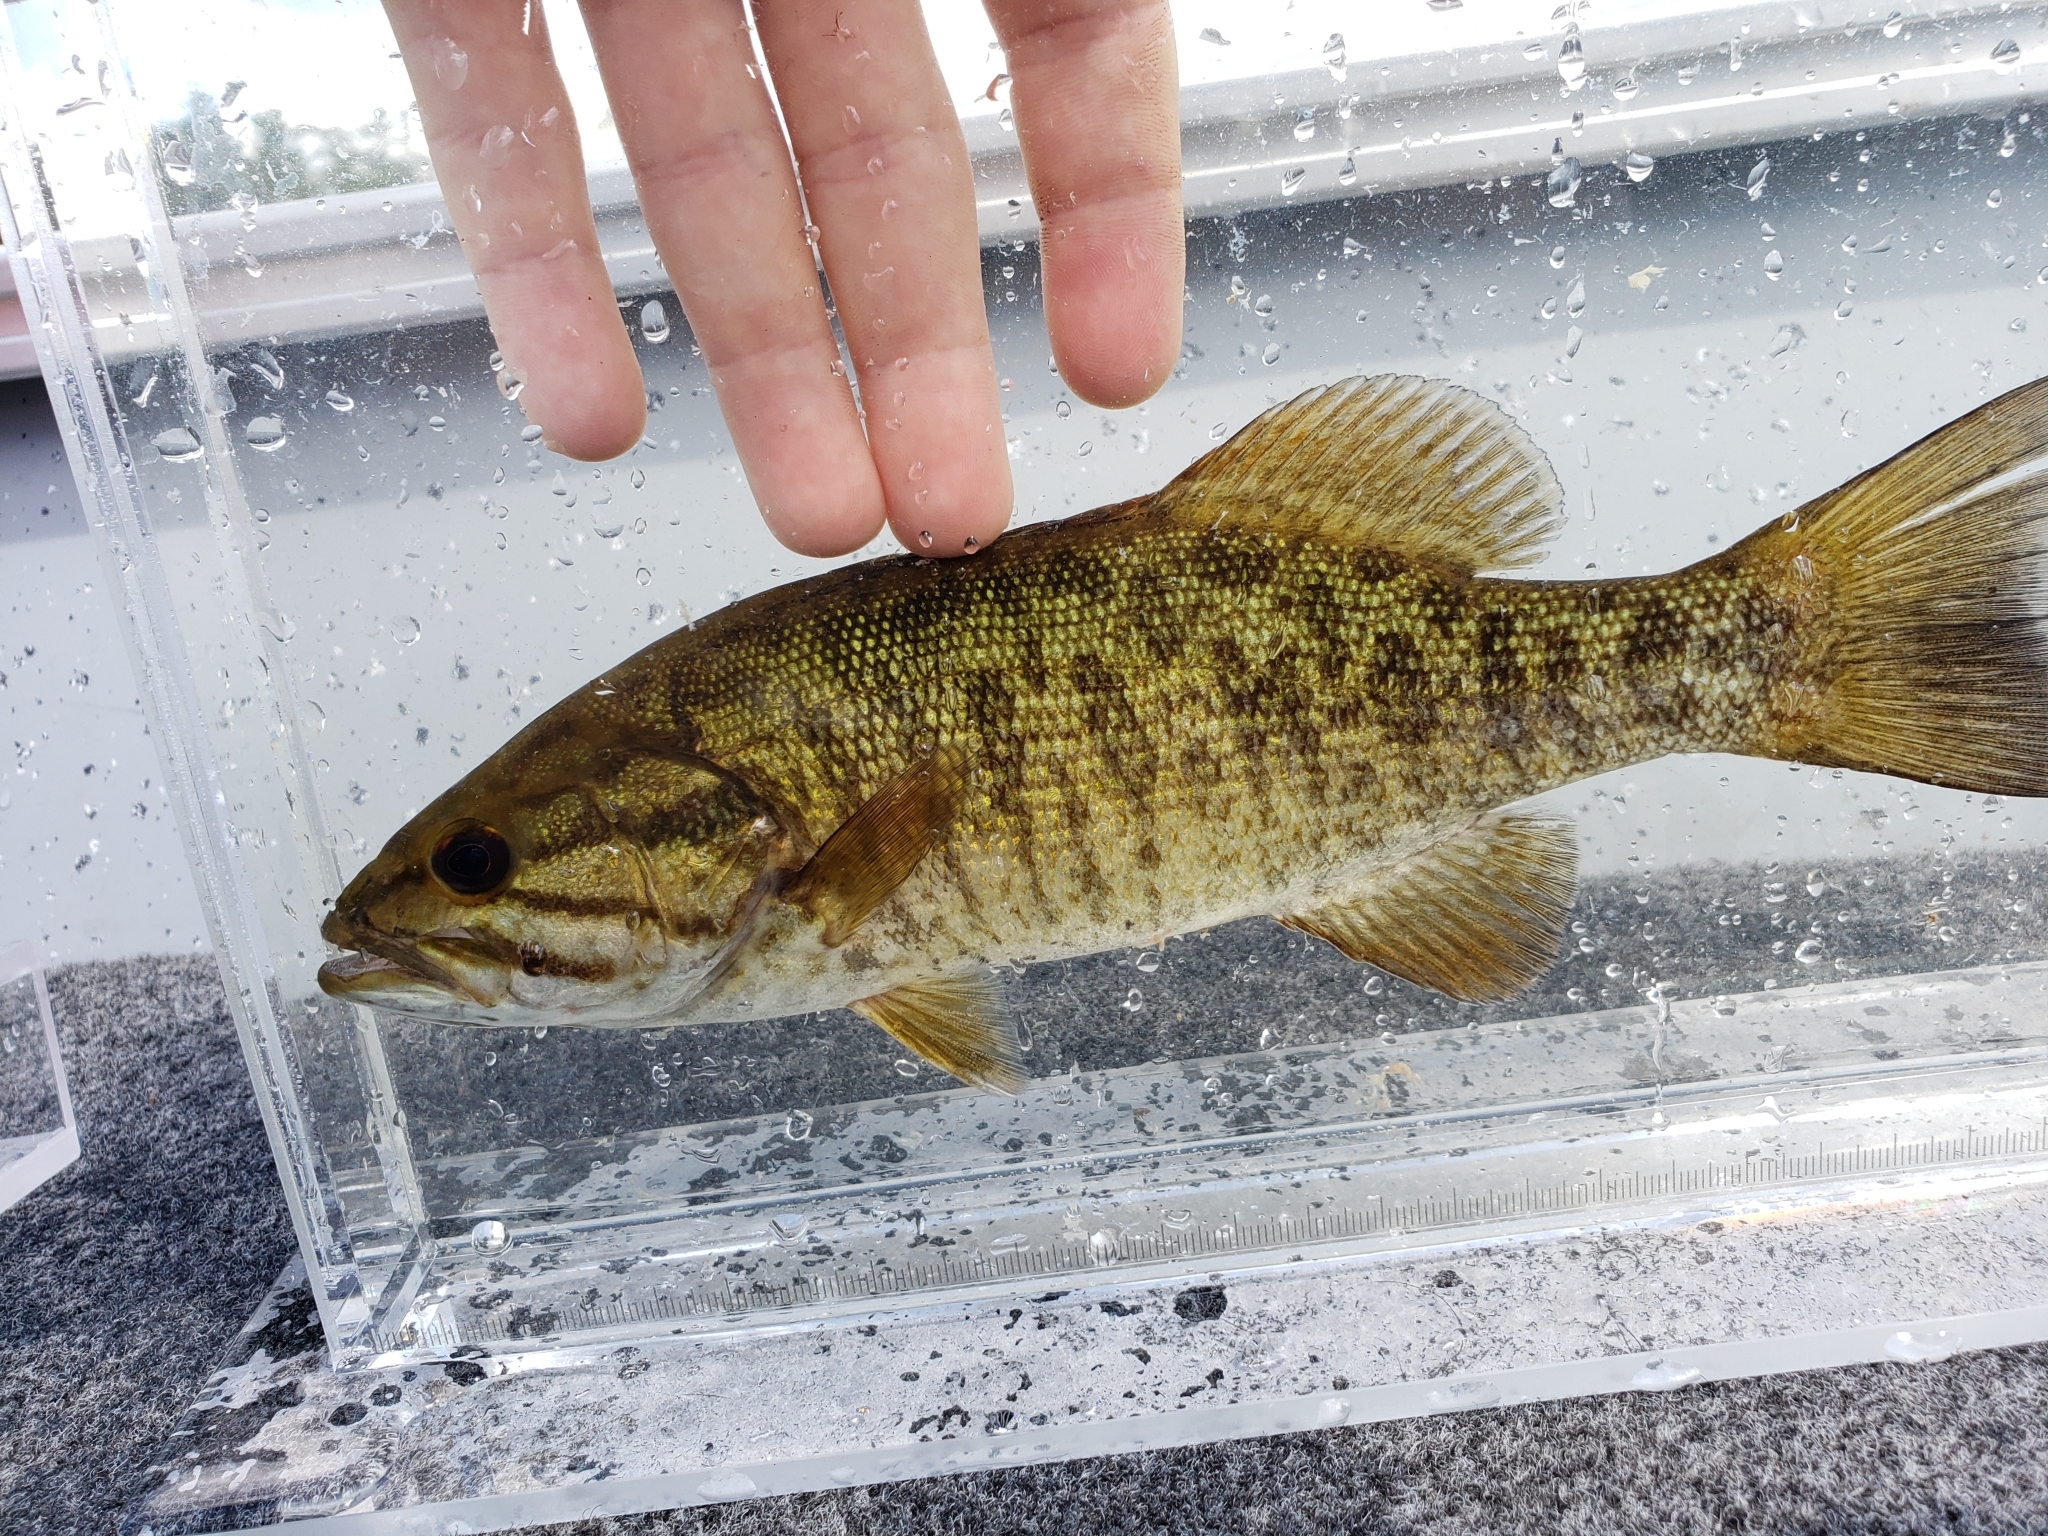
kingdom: Animalia
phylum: Chordata
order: Perciformes
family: Centrarchidae
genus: Micropterus
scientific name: Micropterus dolomieu
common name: Smallmouth bass
